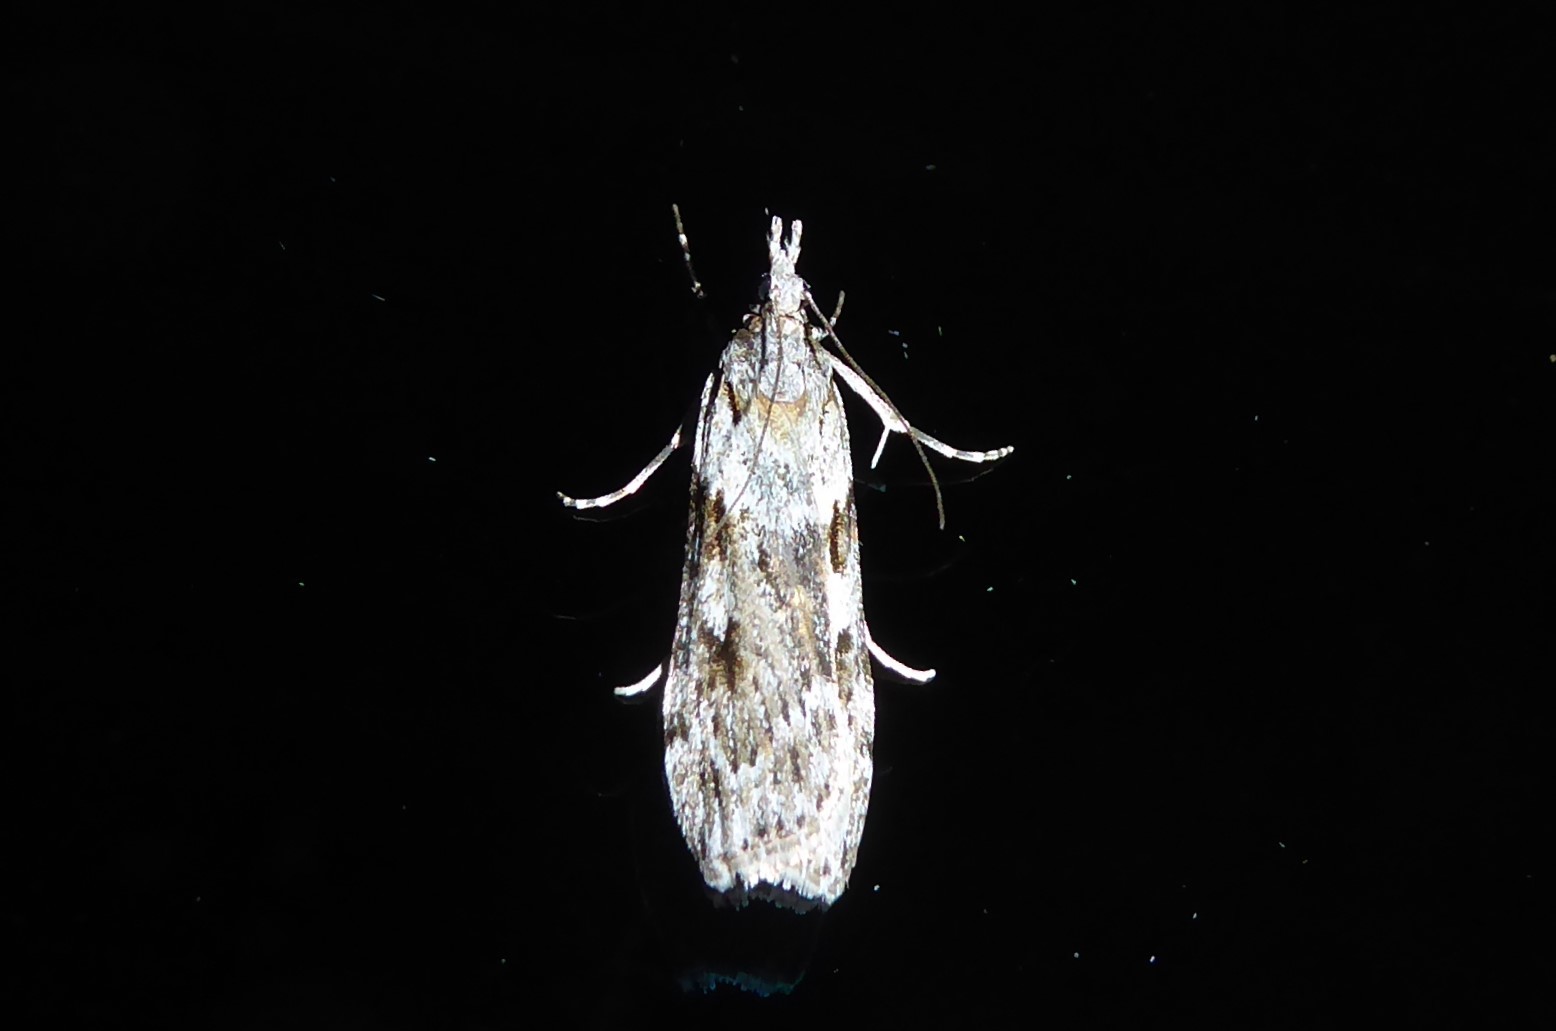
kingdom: Animalia
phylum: Arthropoda
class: Insecta
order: Lepidoptera
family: Crambidae
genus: Scoparia
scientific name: Scoparia halopis
